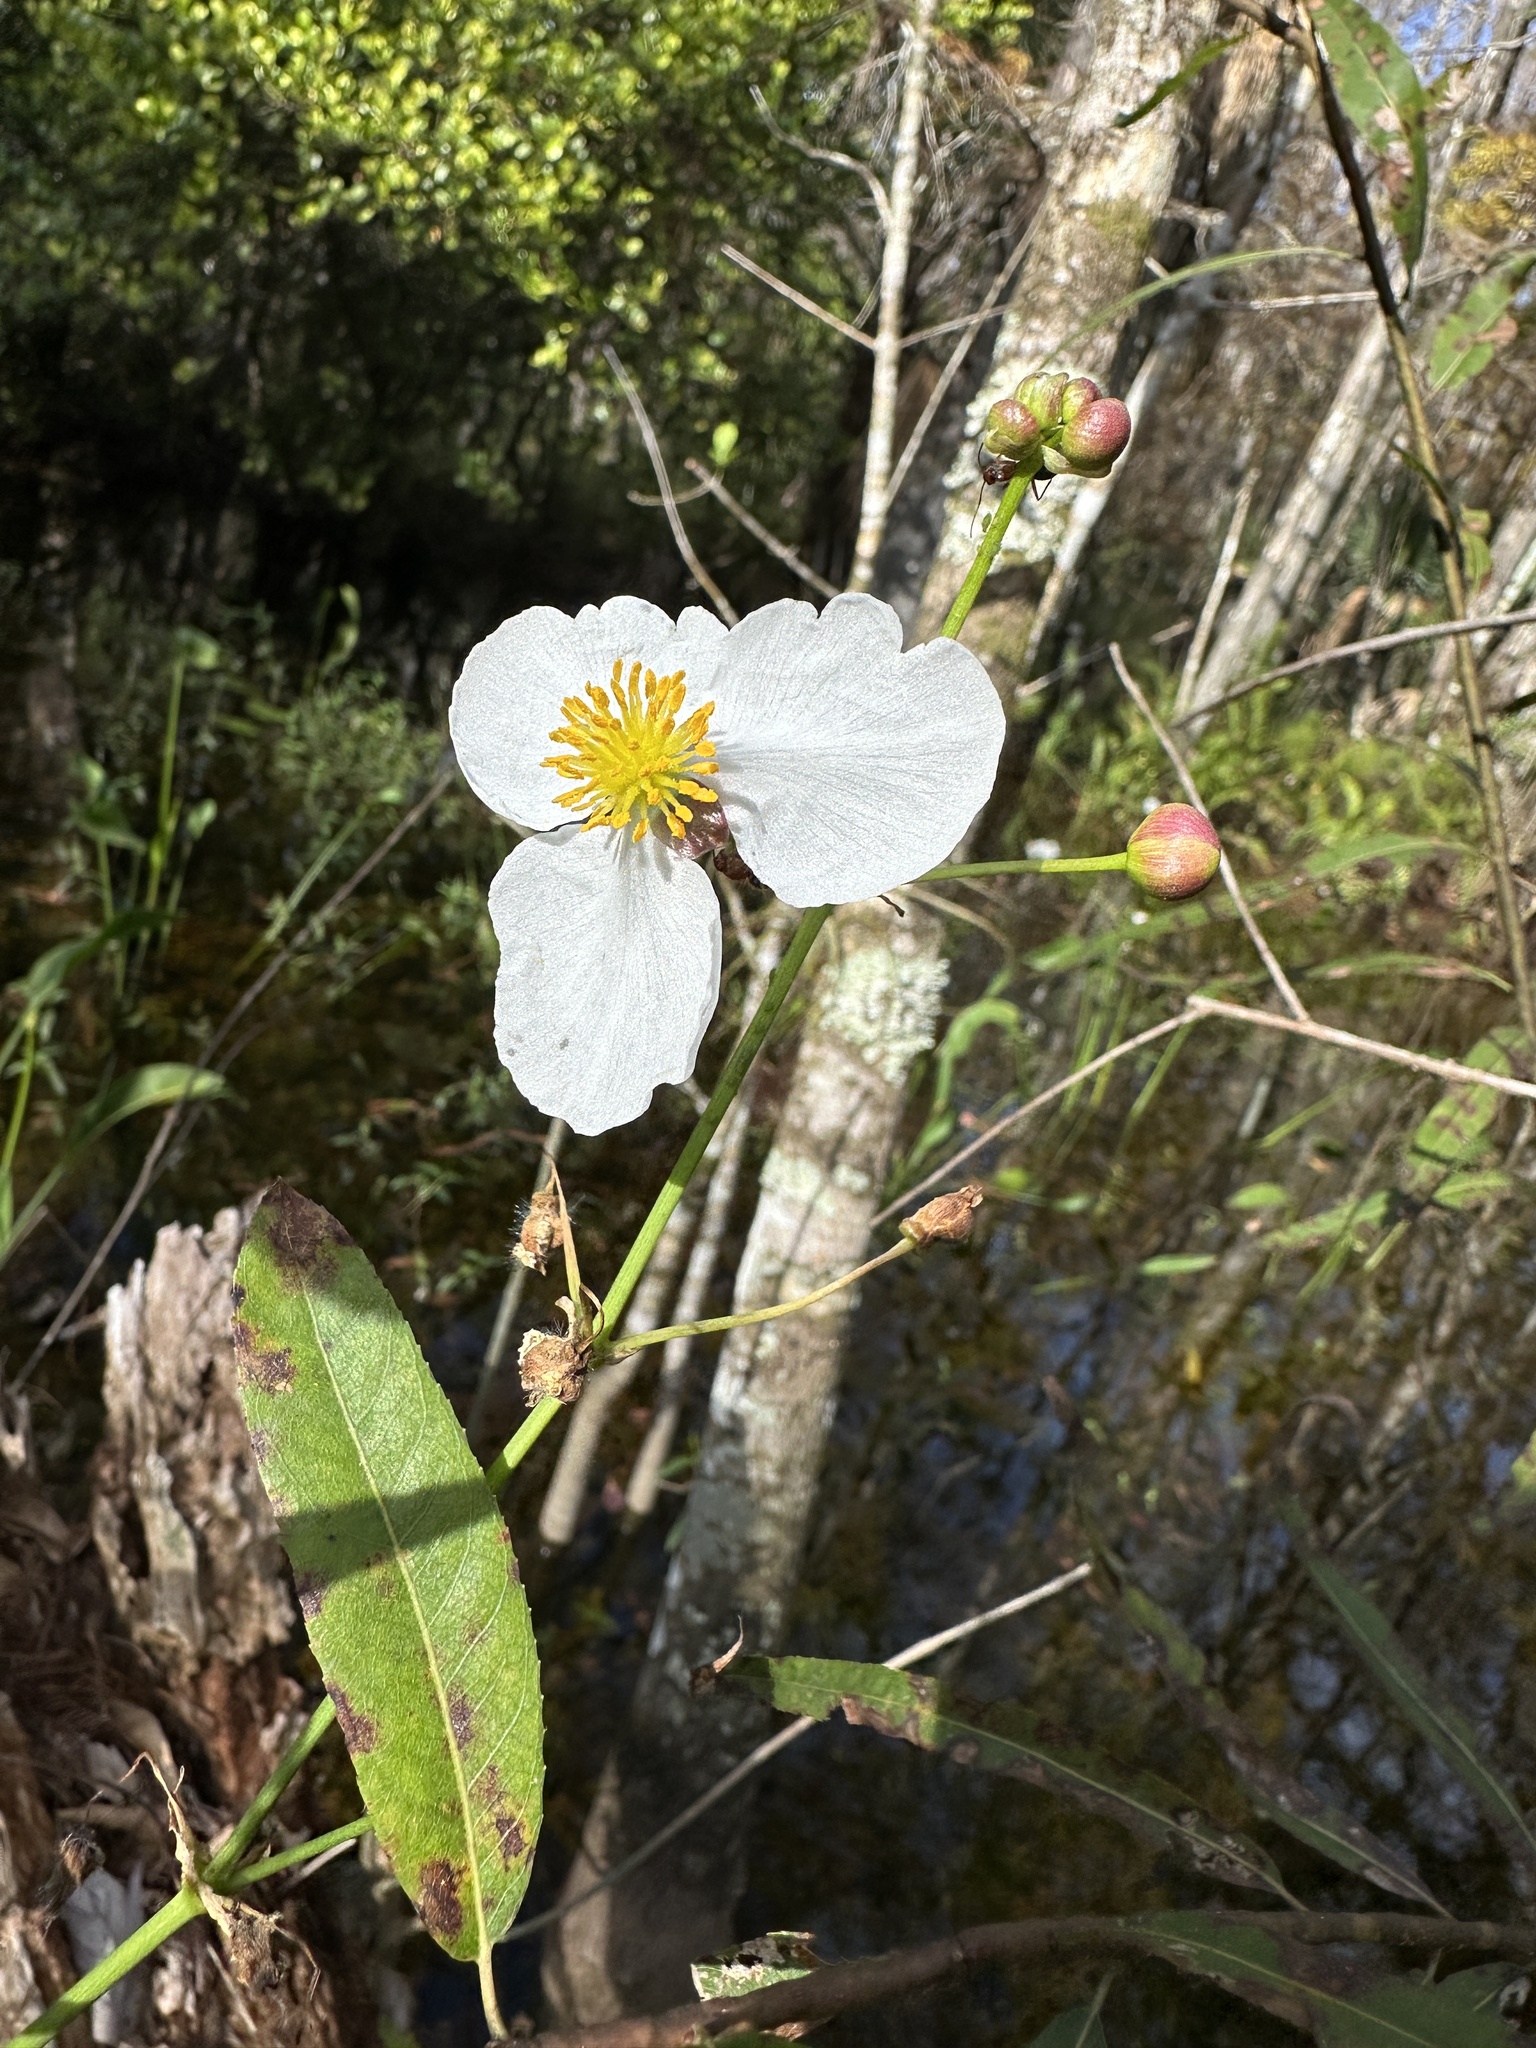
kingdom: Plantae
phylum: Tracheophyta
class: Liliopsida
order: Alismatales
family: Alismataceae
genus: Sagittaria
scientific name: Sagittaria lancifolia
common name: Lance-leaf arrowhead
